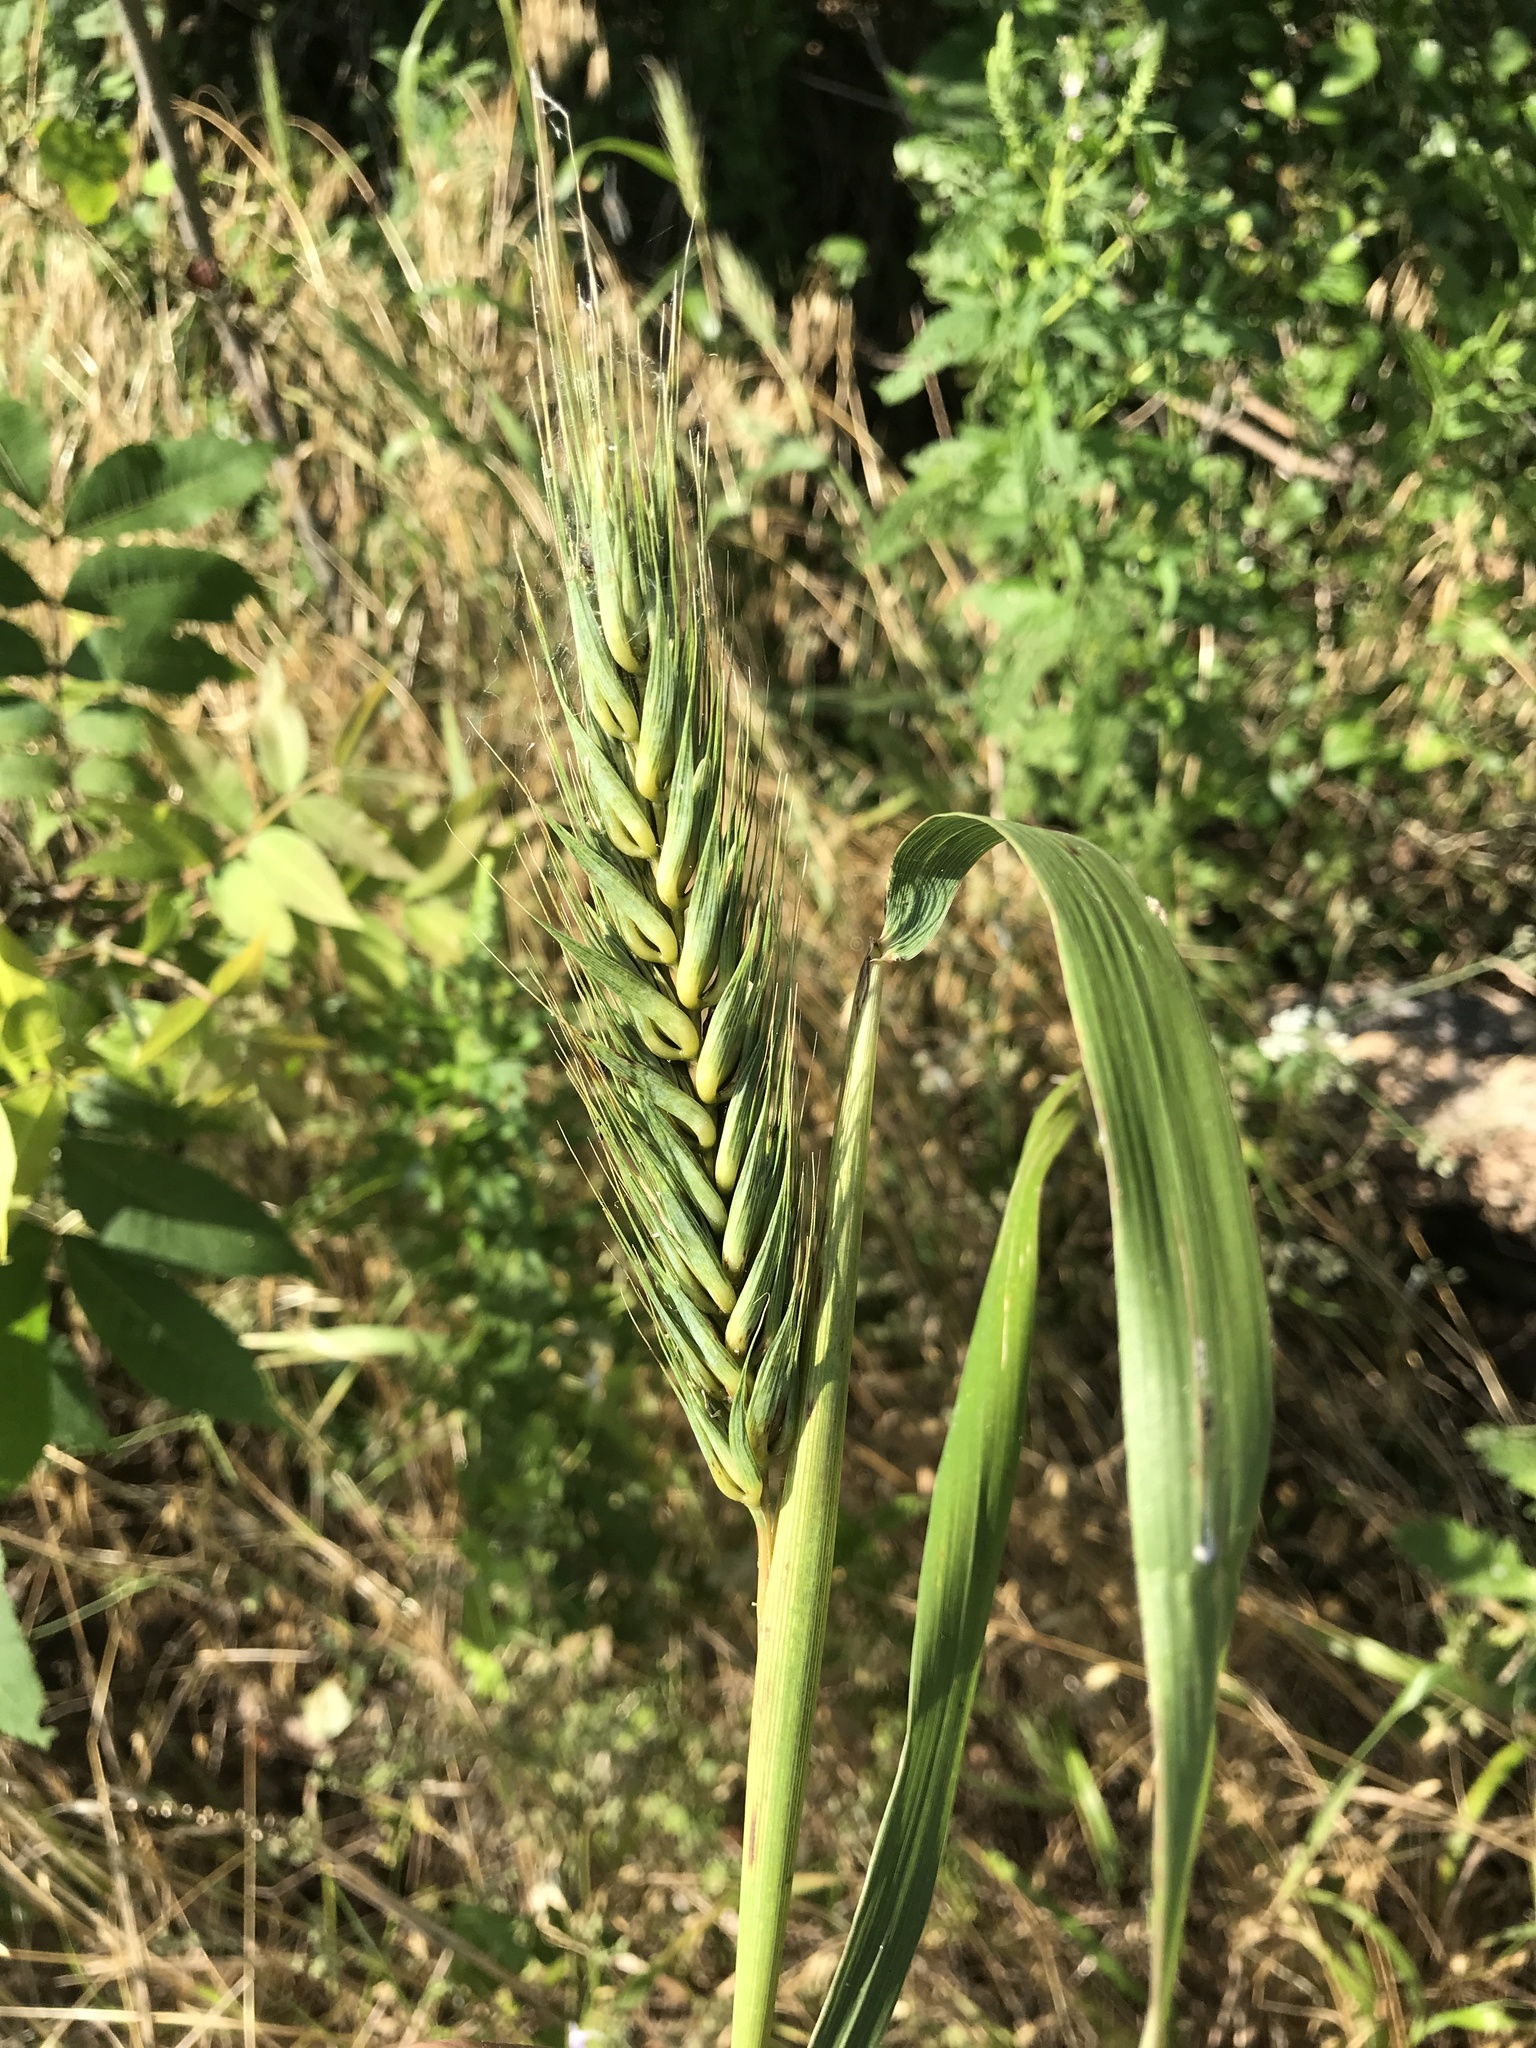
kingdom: Plantae
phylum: Tracheophyta
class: Liliopsida
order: Poales
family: Poaceae
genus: Elymus
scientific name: Elymus virginicus
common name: Common eastern wildrye
